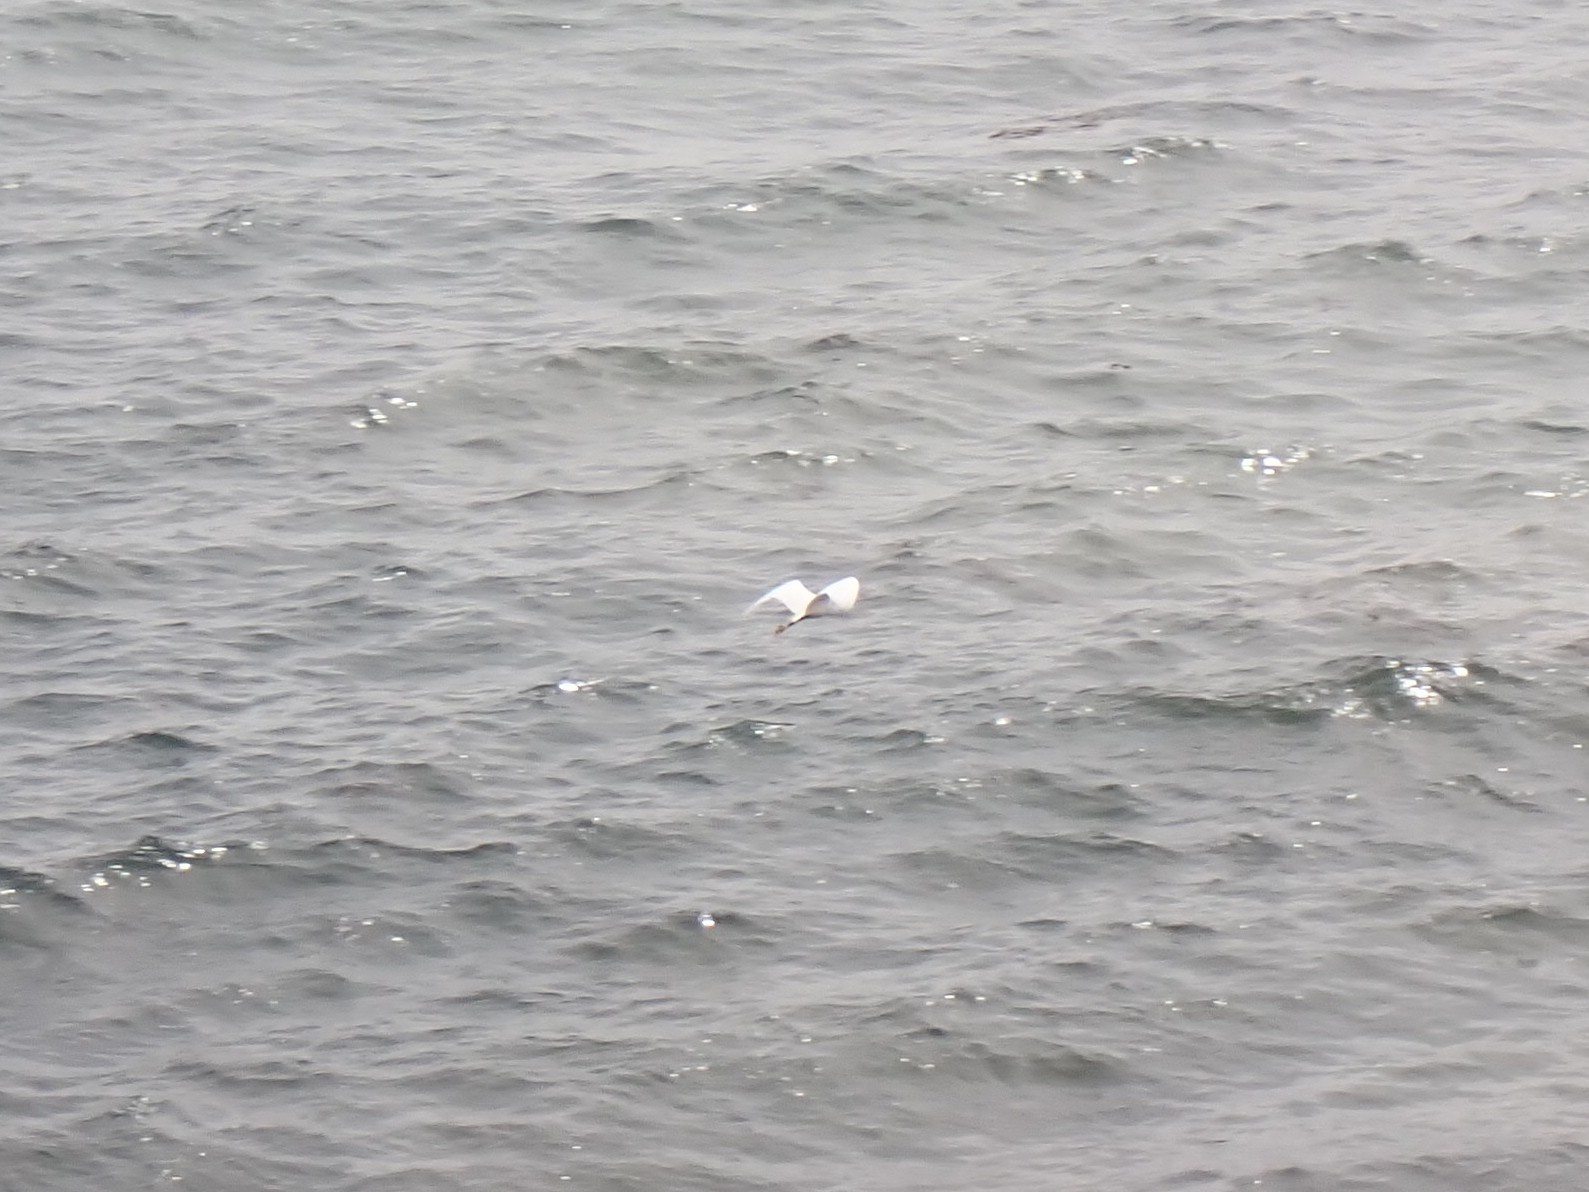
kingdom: Animalia
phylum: Chordata
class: Aves
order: Pelecaniformes
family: Ardeidae
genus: Egretta
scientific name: Egretta garzetta
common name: Little egret
